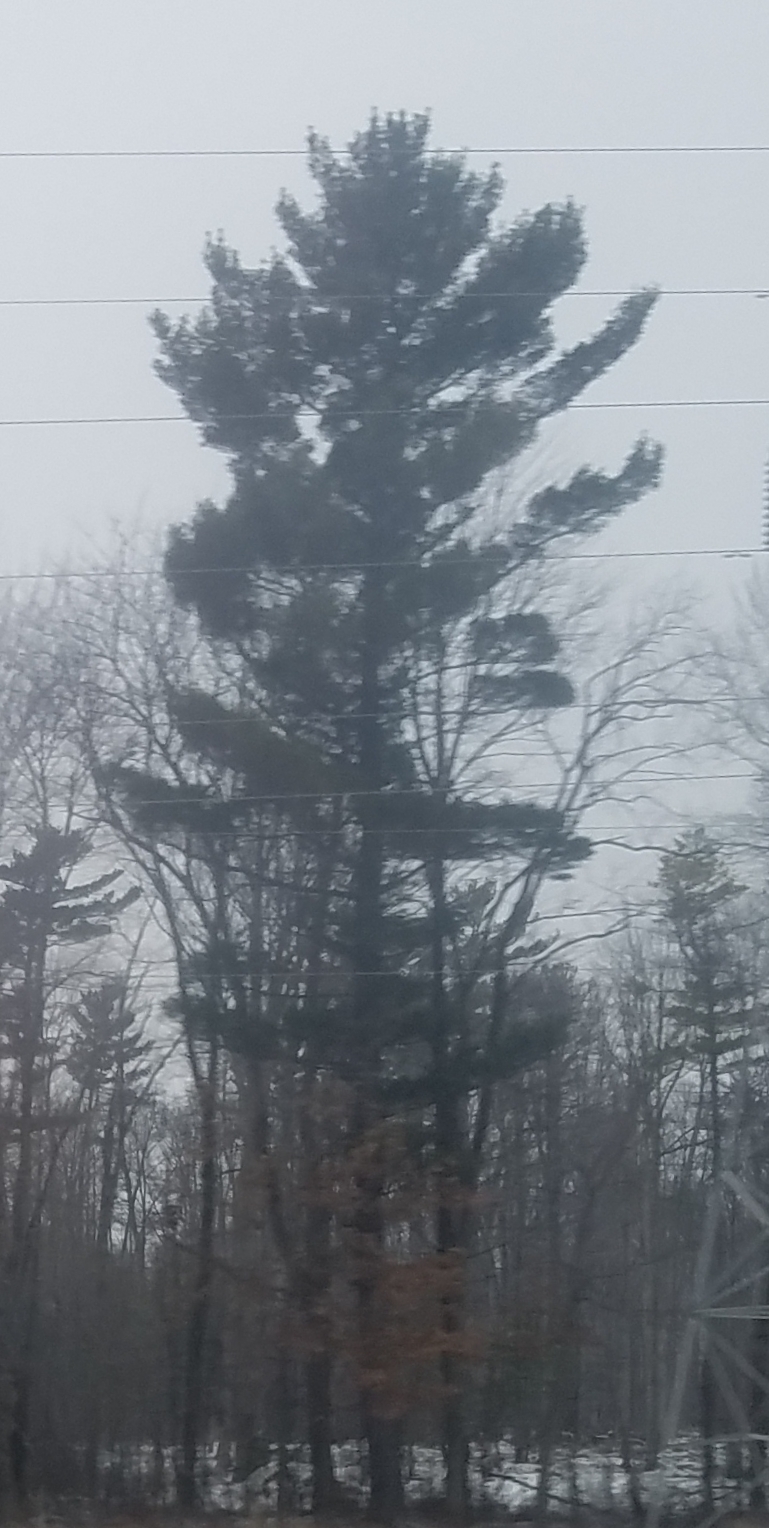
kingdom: Plantae
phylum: Tracheophyta
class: Pinopsida
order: Pinales
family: Pinaceae
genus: Pinus
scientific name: Pinus strobus
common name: Weymouth pine
